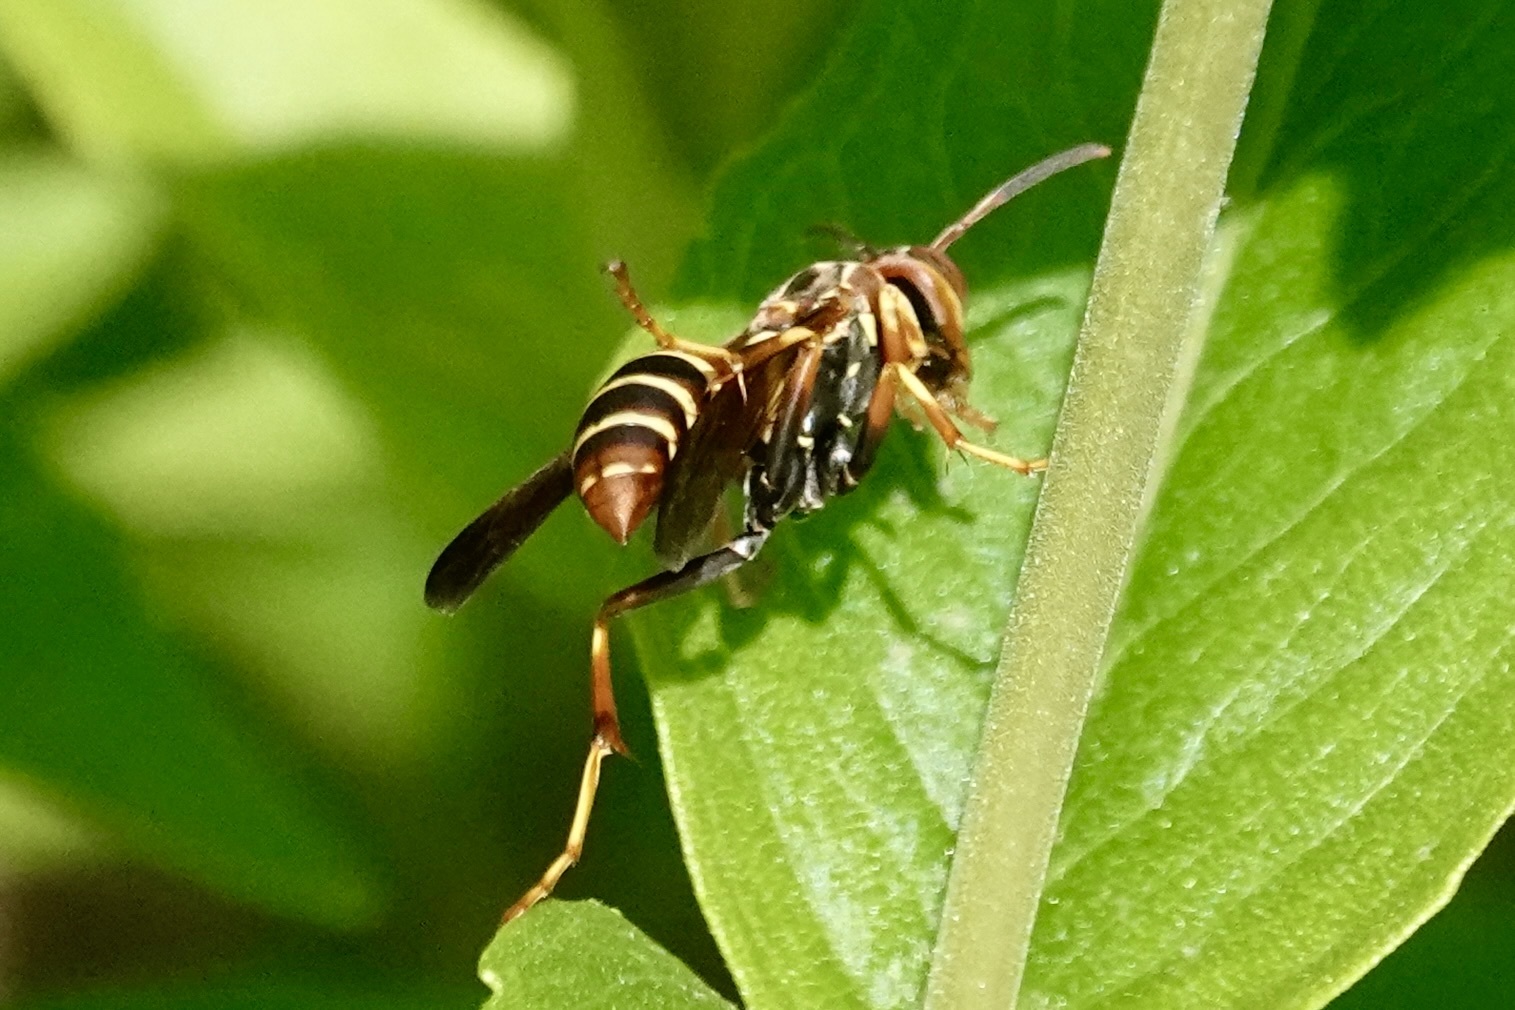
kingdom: Animalia
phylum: Arthropoda
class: Insecta
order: Hymenoptera
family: Eumenidae
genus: Polistes
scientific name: Polistes dorsalis
